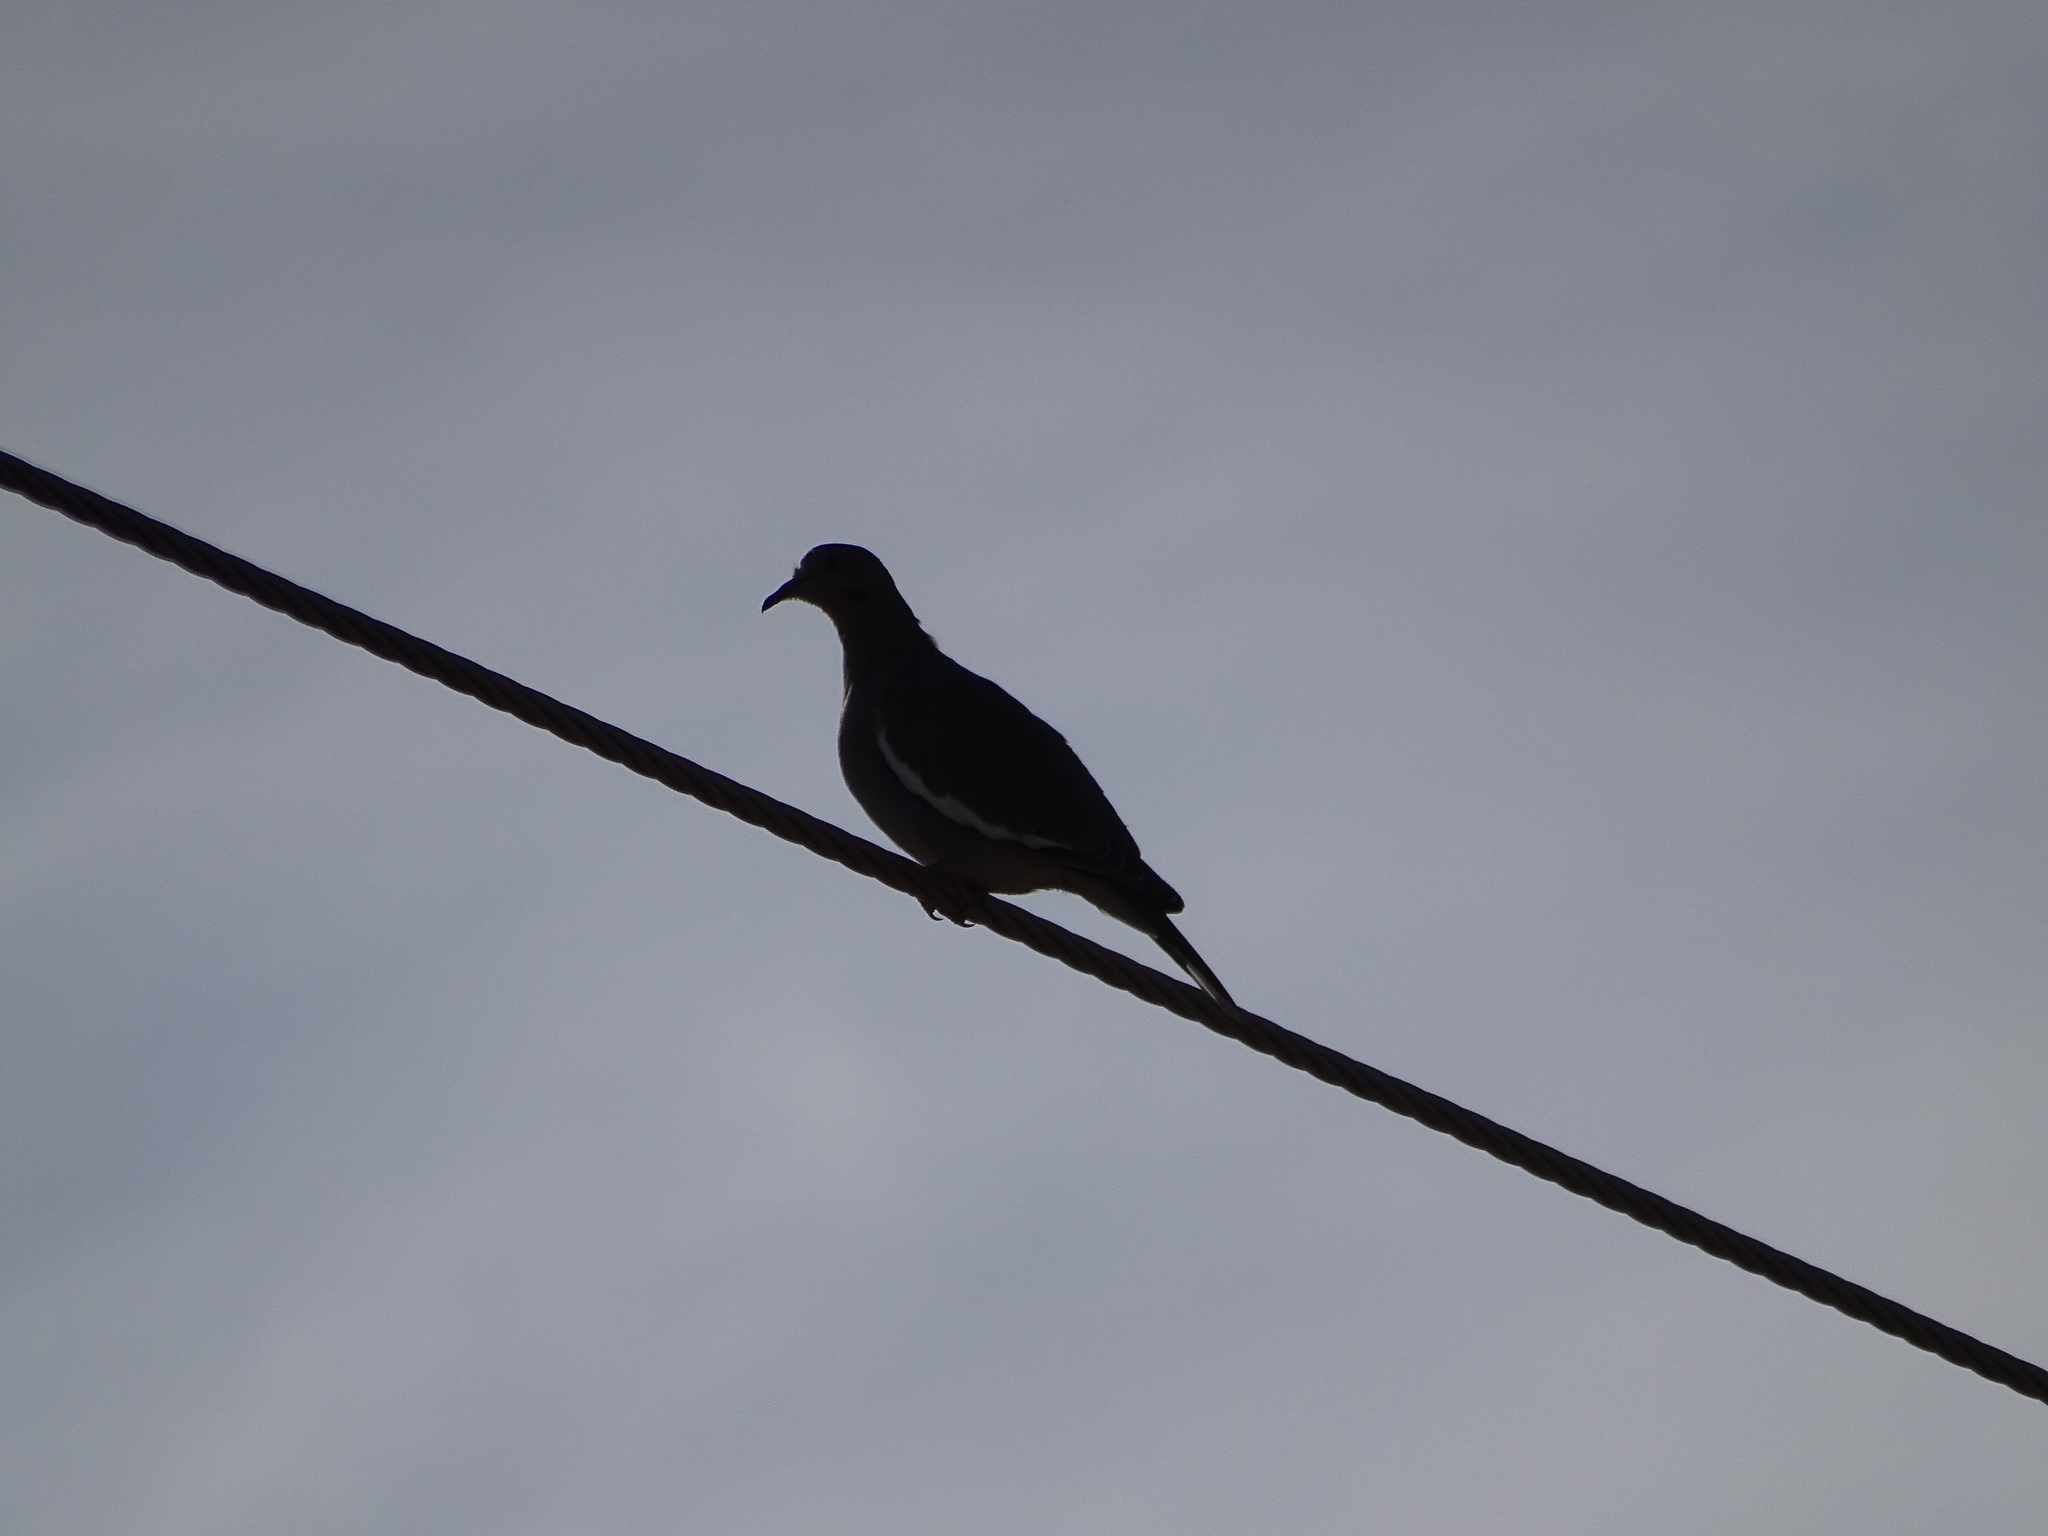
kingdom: Animalia
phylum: Chordata
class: Aves
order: Columbiformes
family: Columbidae
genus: Zenaida
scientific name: Zenaida asiatica
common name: White-winged dove
